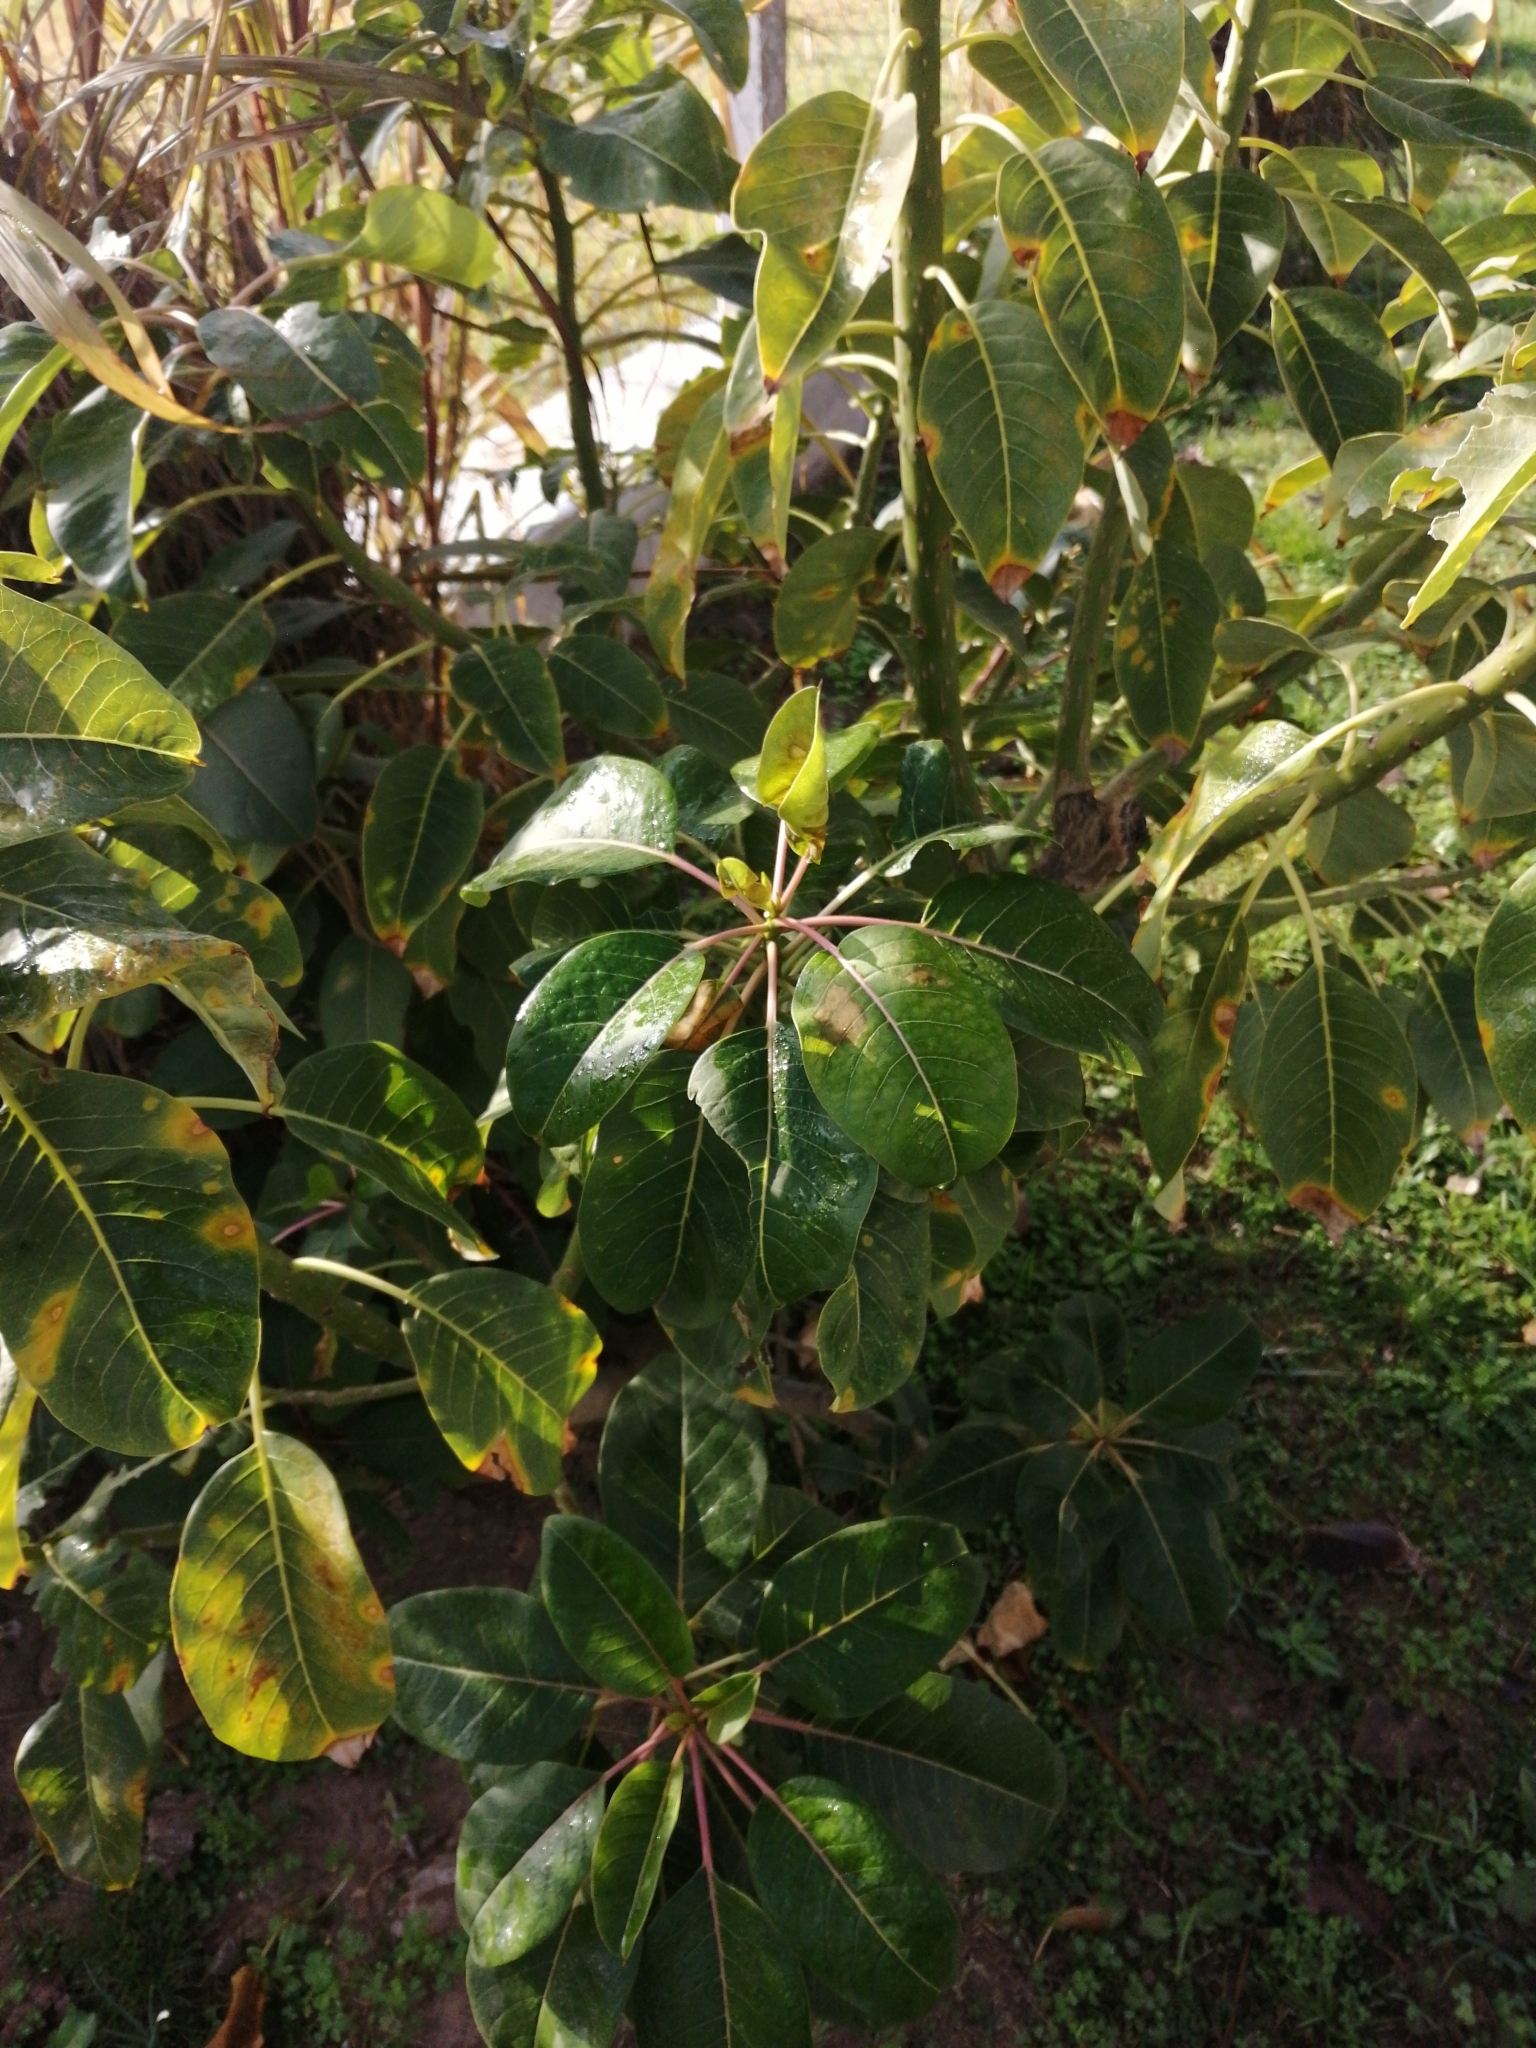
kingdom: Plantae
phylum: Tracheophyta
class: Magnoliopsida
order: Caryophyllales
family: Phytolaccaceae
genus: Phytolacca
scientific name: Phytolacca dioica
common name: Pokeweed
